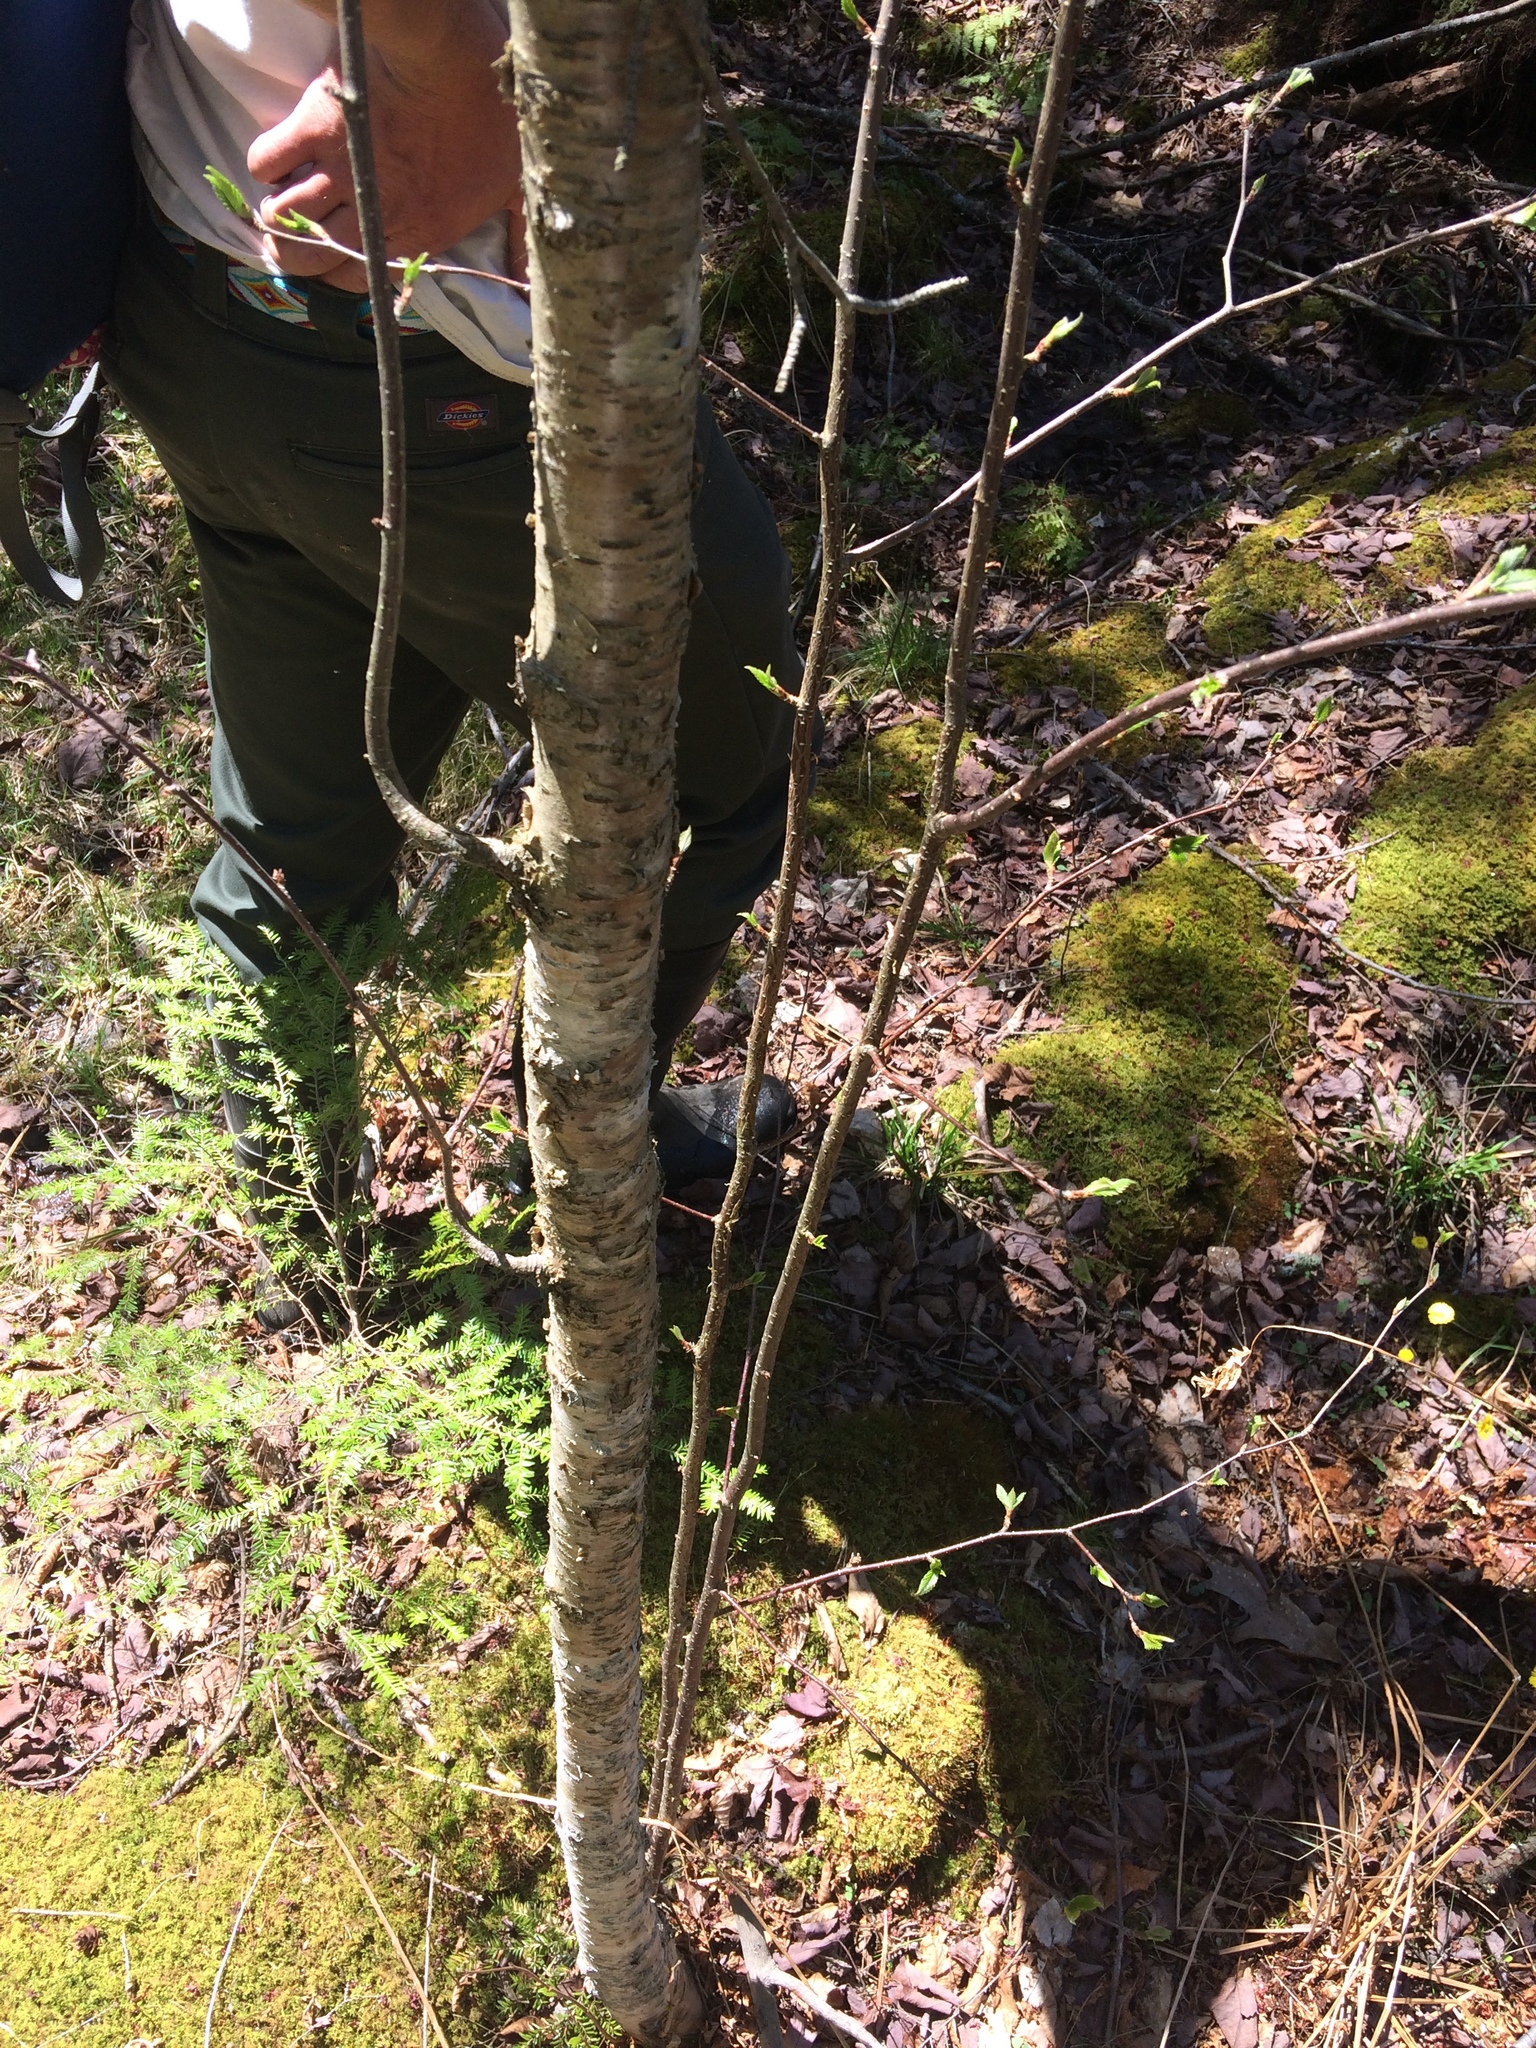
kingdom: Plantae
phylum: Tracheophyta
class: Magnoliopsida
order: Fagales
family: Betulaceae
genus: Betula
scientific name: Betula alleghaniensis
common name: Yellow birch
